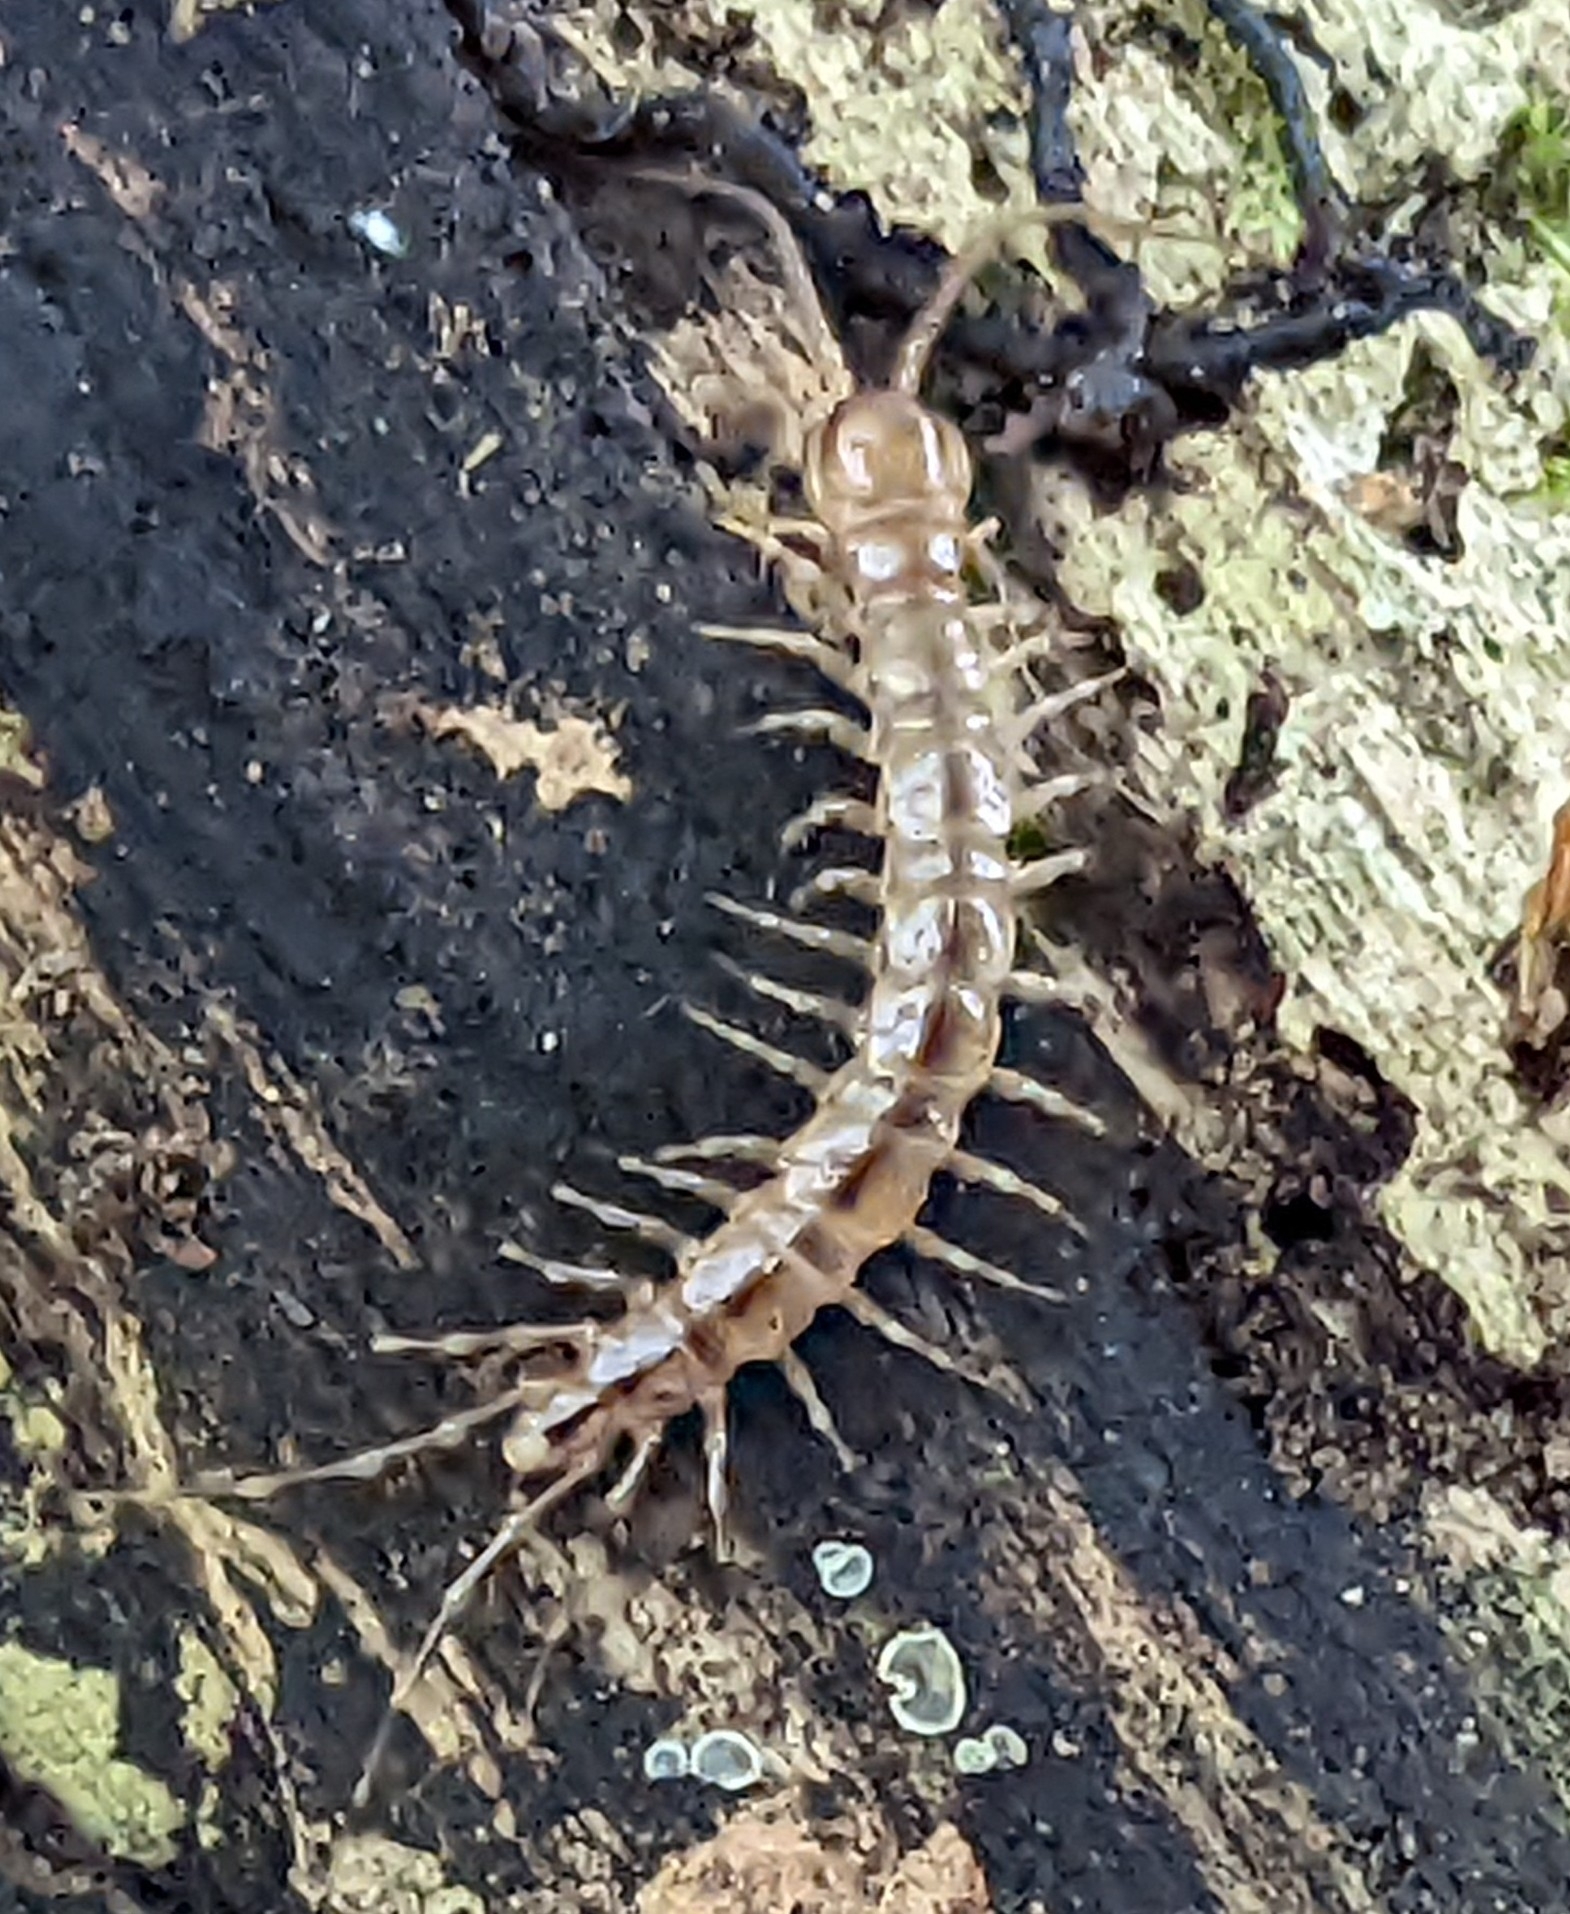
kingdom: Animalia
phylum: Arthropoda
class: Chilopoda
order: Lithobiomorpha
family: Lithobiidae
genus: Lithobius
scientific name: Lithobius melanops
